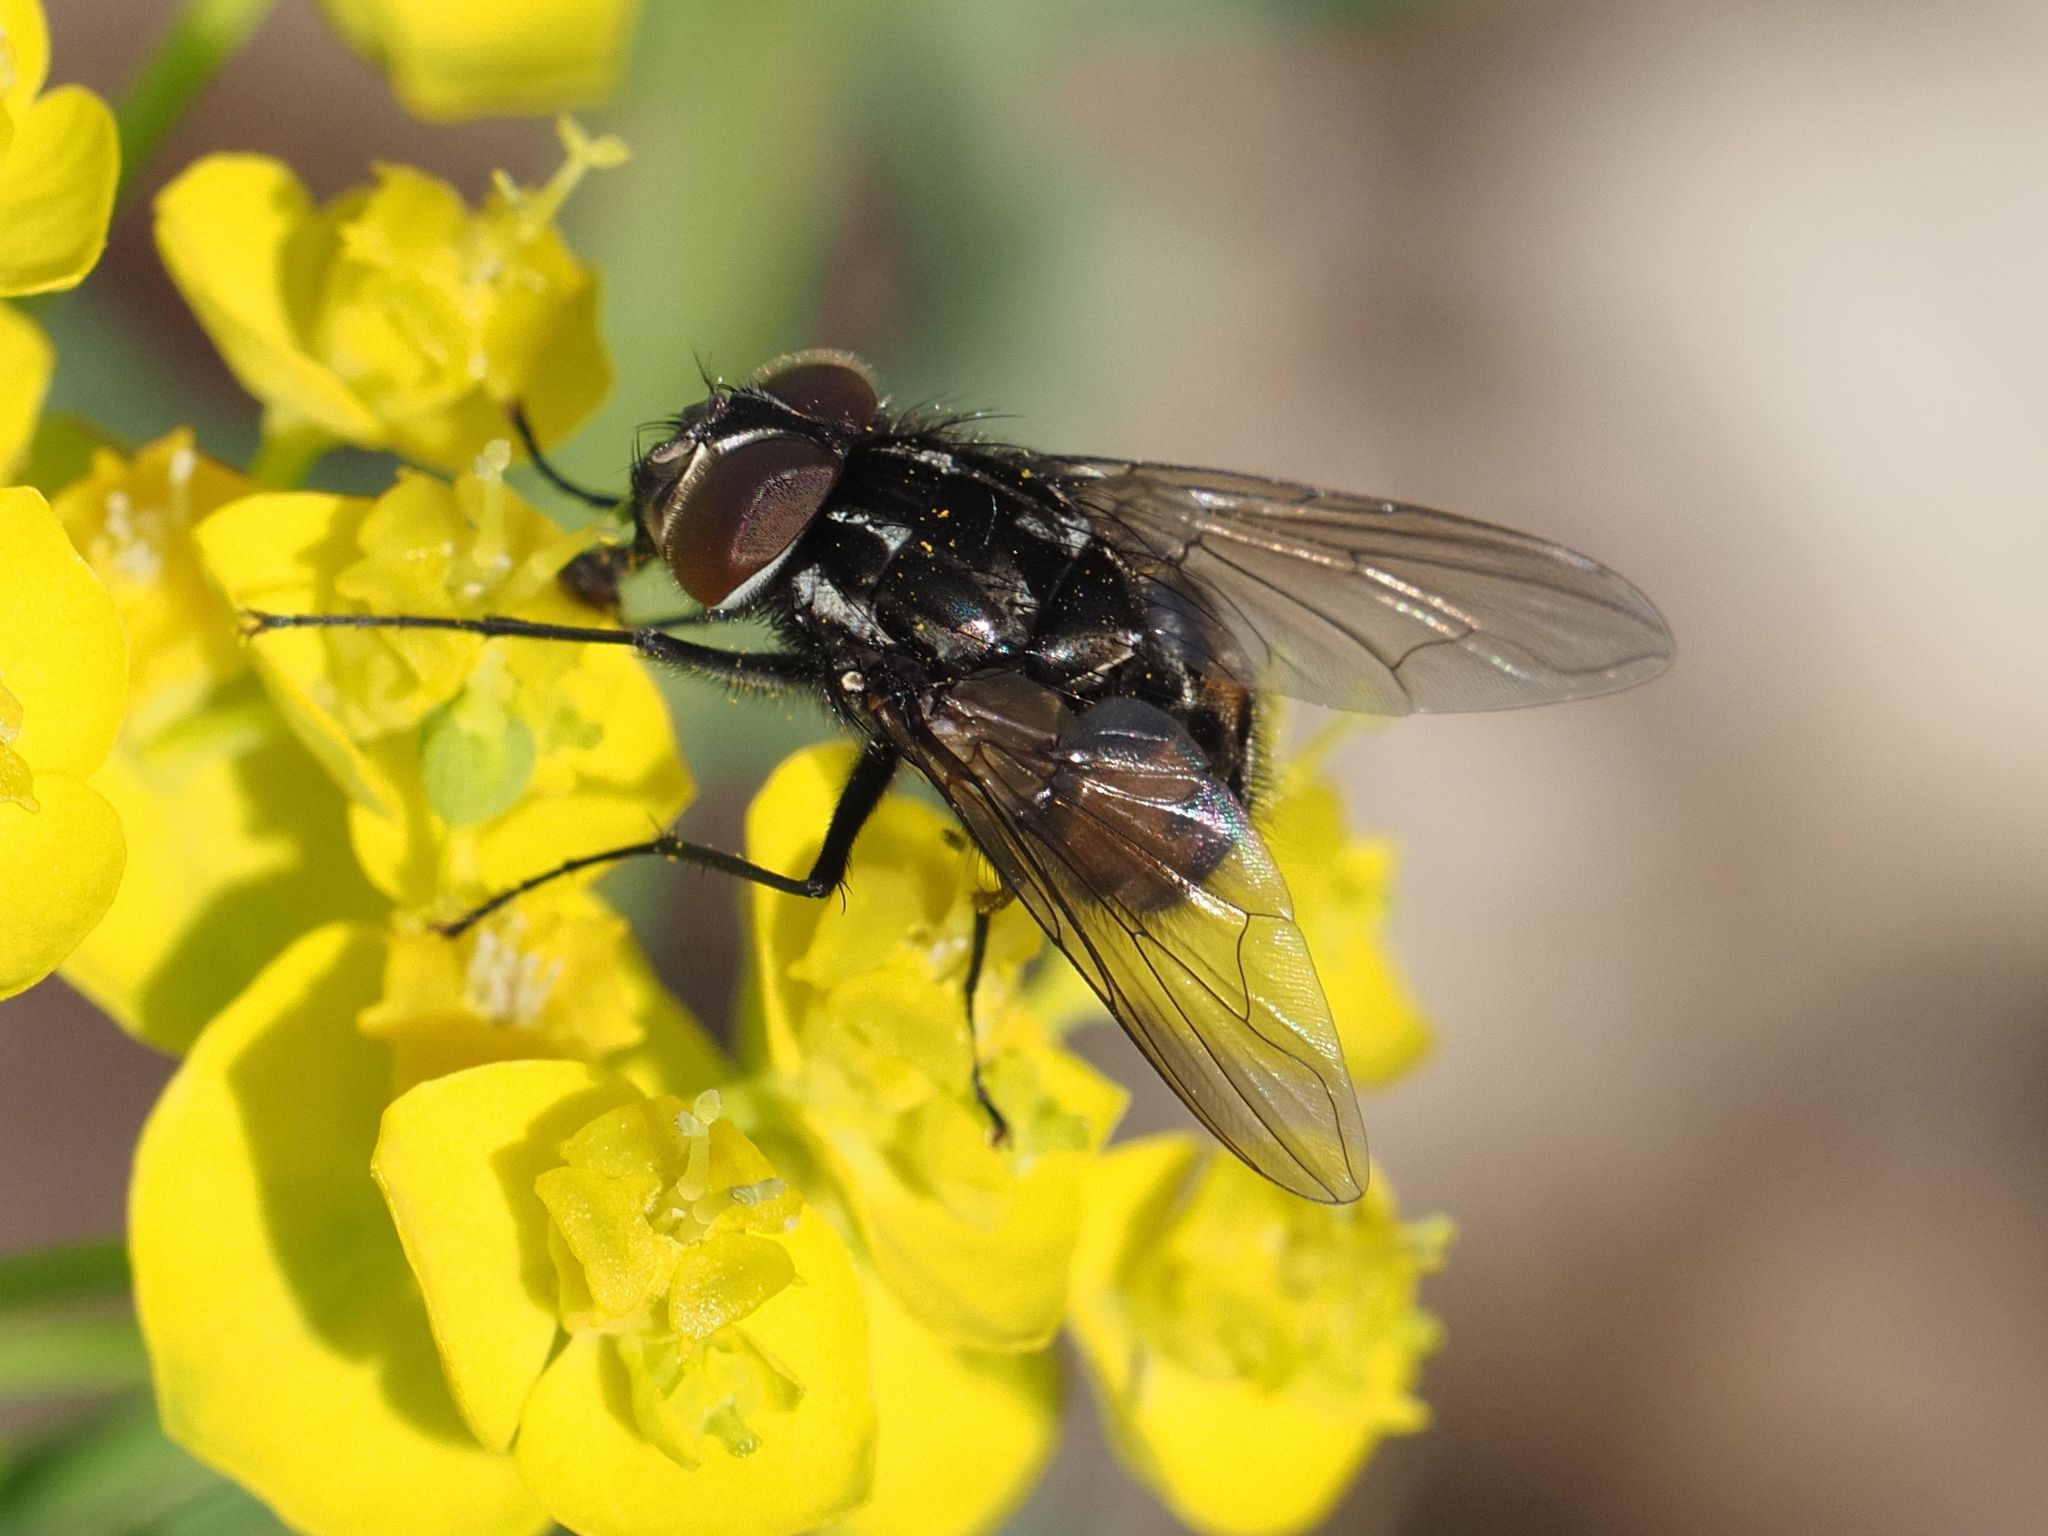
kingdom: Animalia
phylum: Arthropoda
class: Insecta
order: Diptera
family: Muscidae
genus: Graphomya
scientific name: Graphomya maculata
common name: Muscid fly
